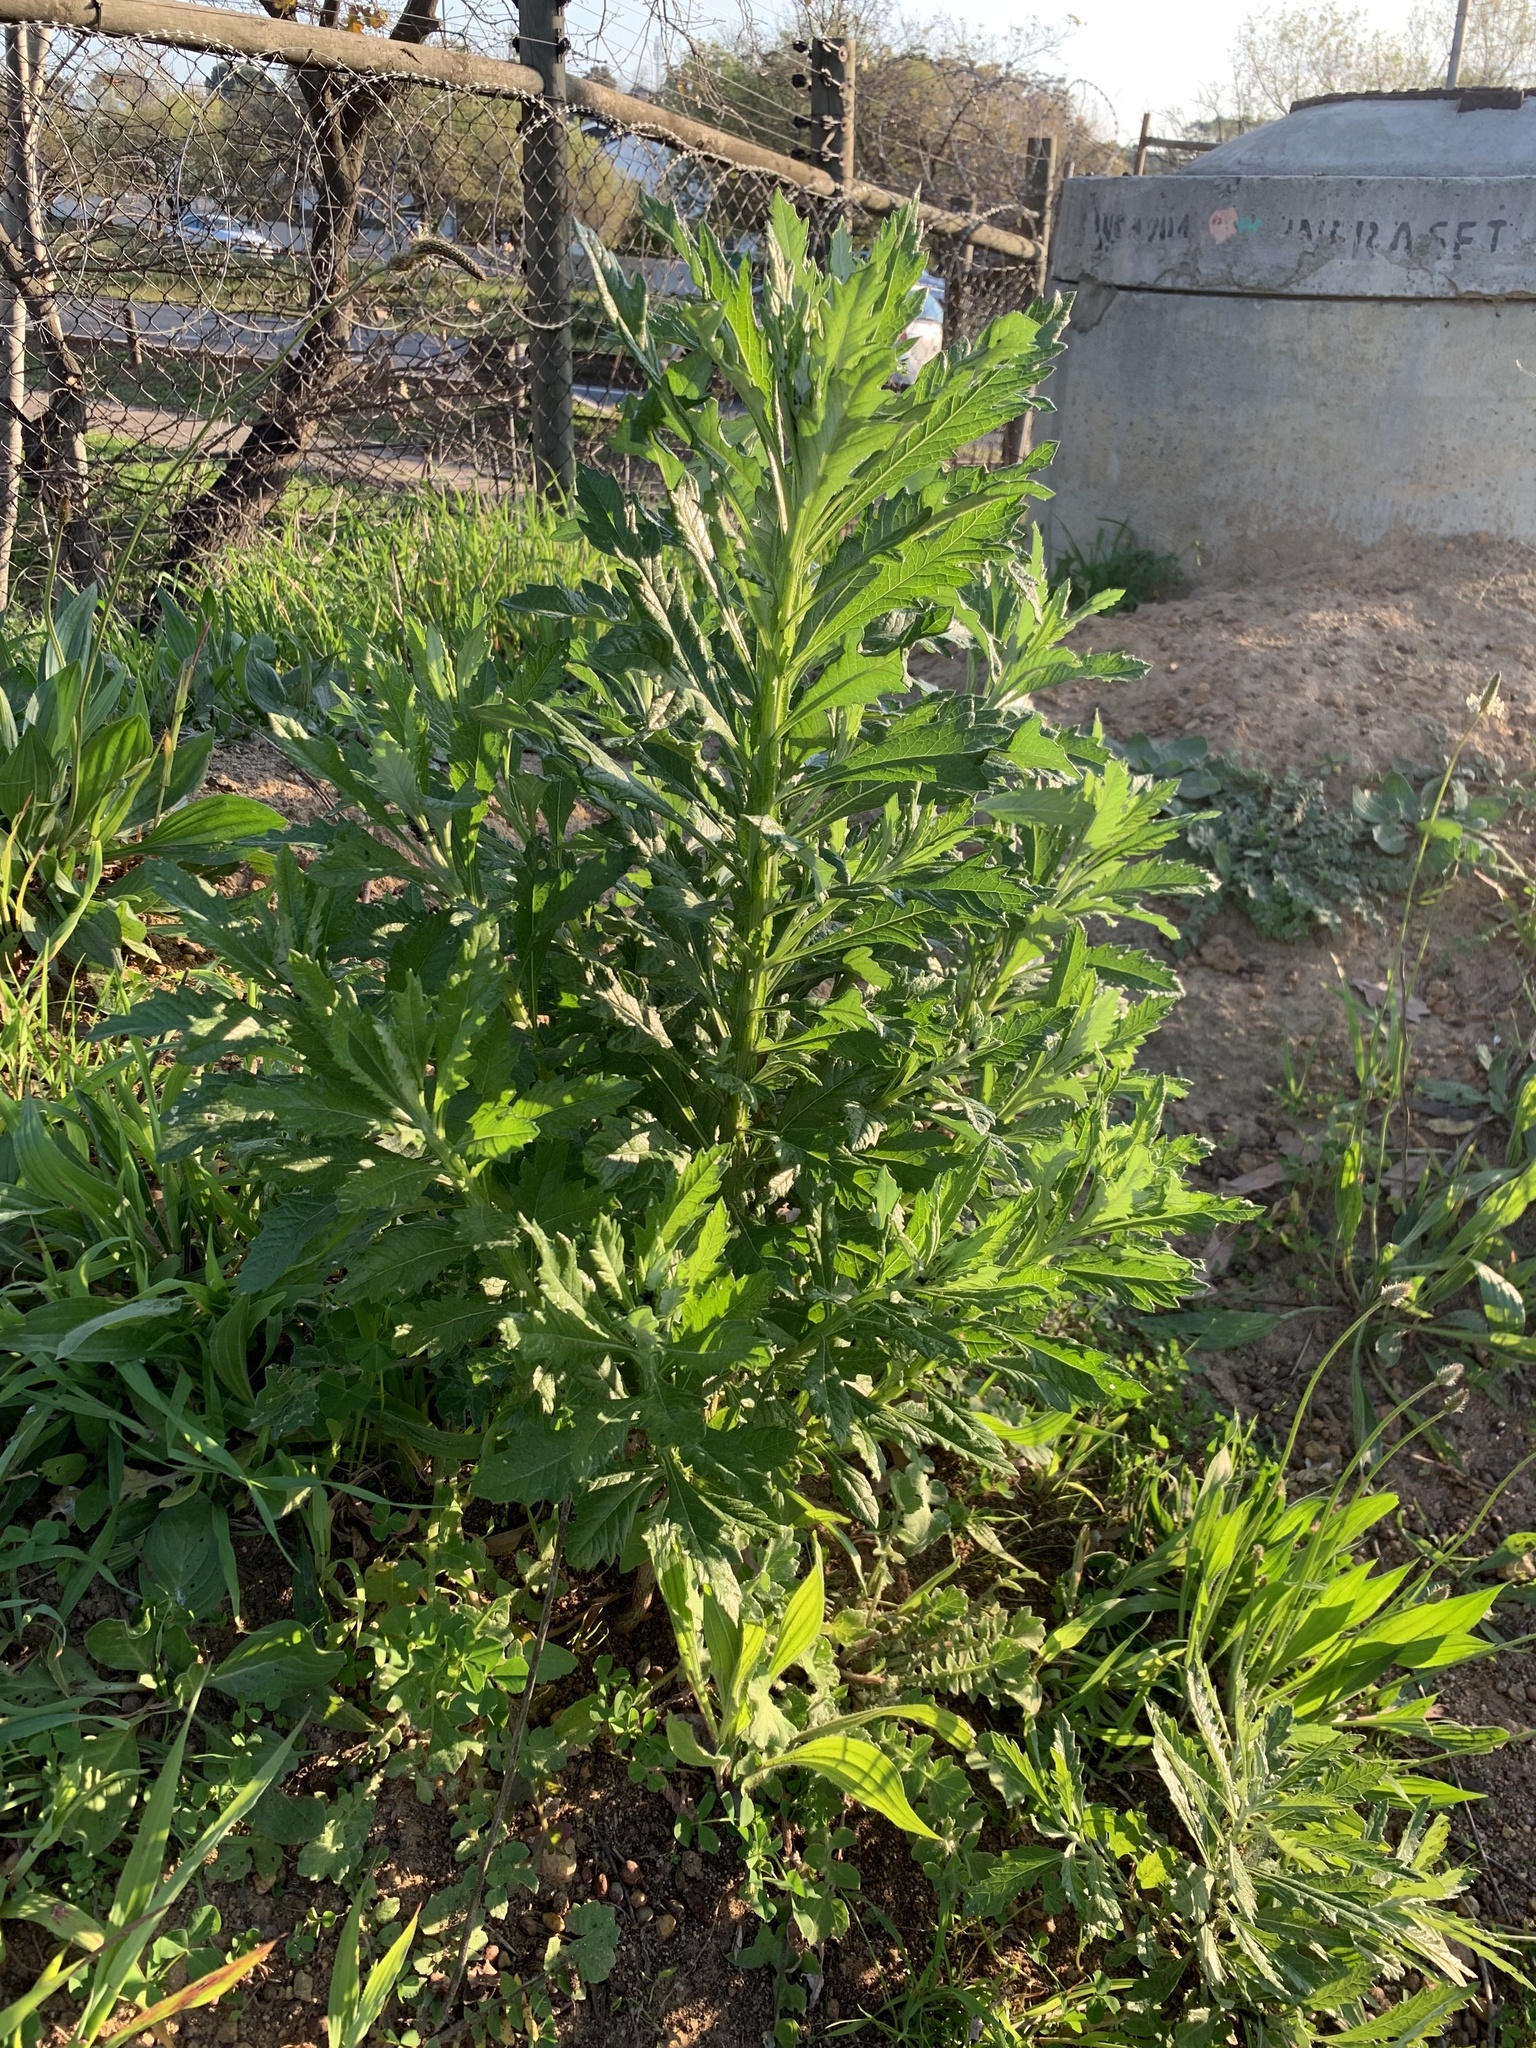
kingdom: Plantae
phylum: Tracheophyta
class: Magnoliopsida
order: Asterales
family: Asteraceae
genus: Senecio
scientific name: Senecio pterophorus
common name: Shoddy ragwort
